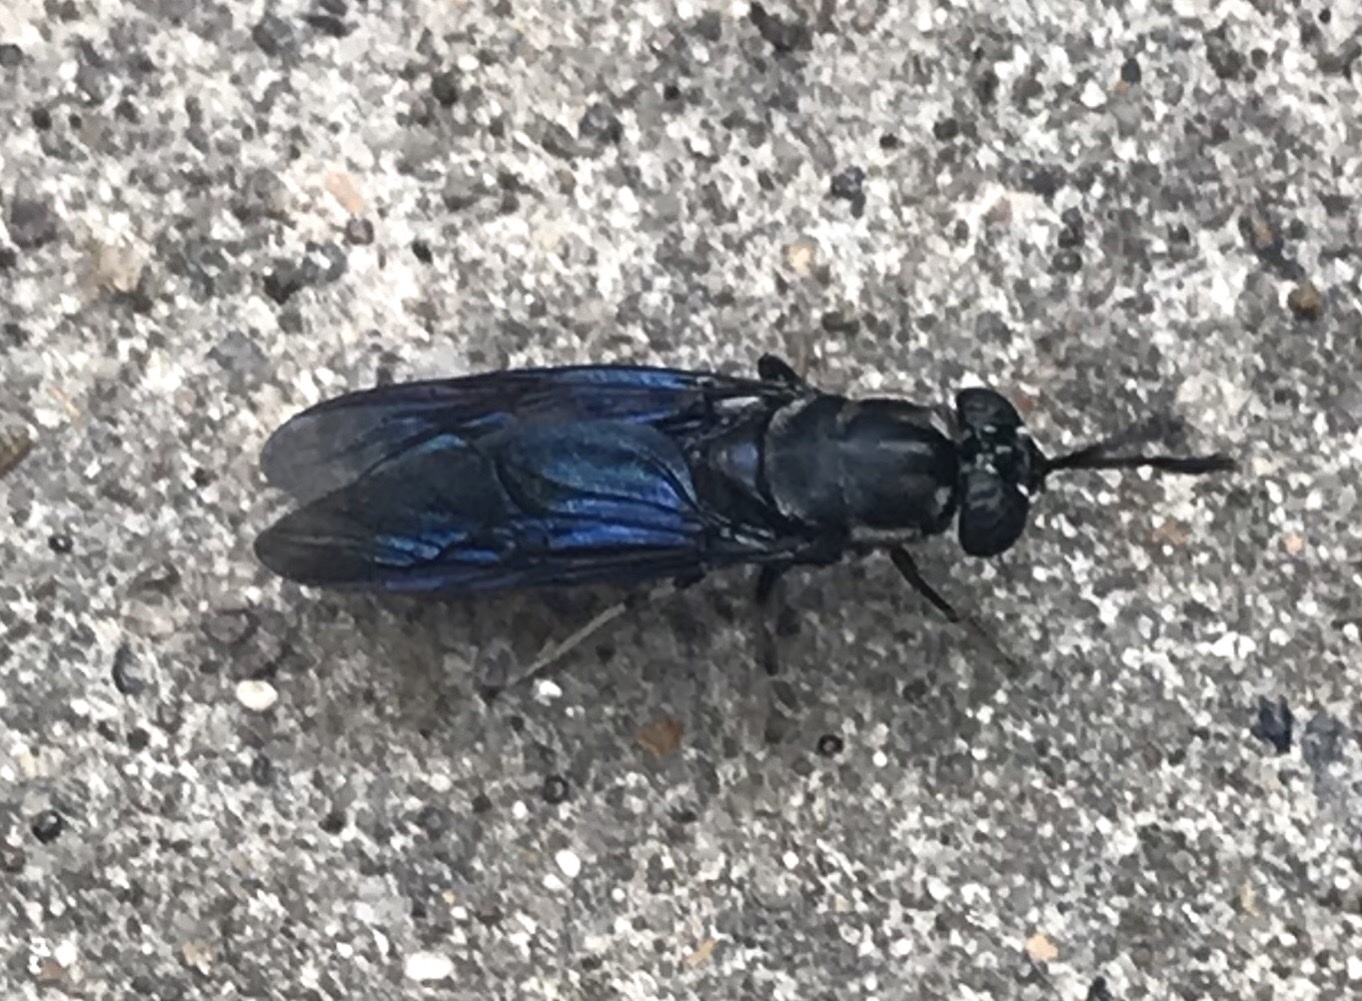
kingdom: Animalia
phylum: Arthropoda
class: Insecta
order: Diptera
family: Stratiomyidae
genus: Hermetia
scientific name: Hermetia illucens
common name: Black soldier fly
